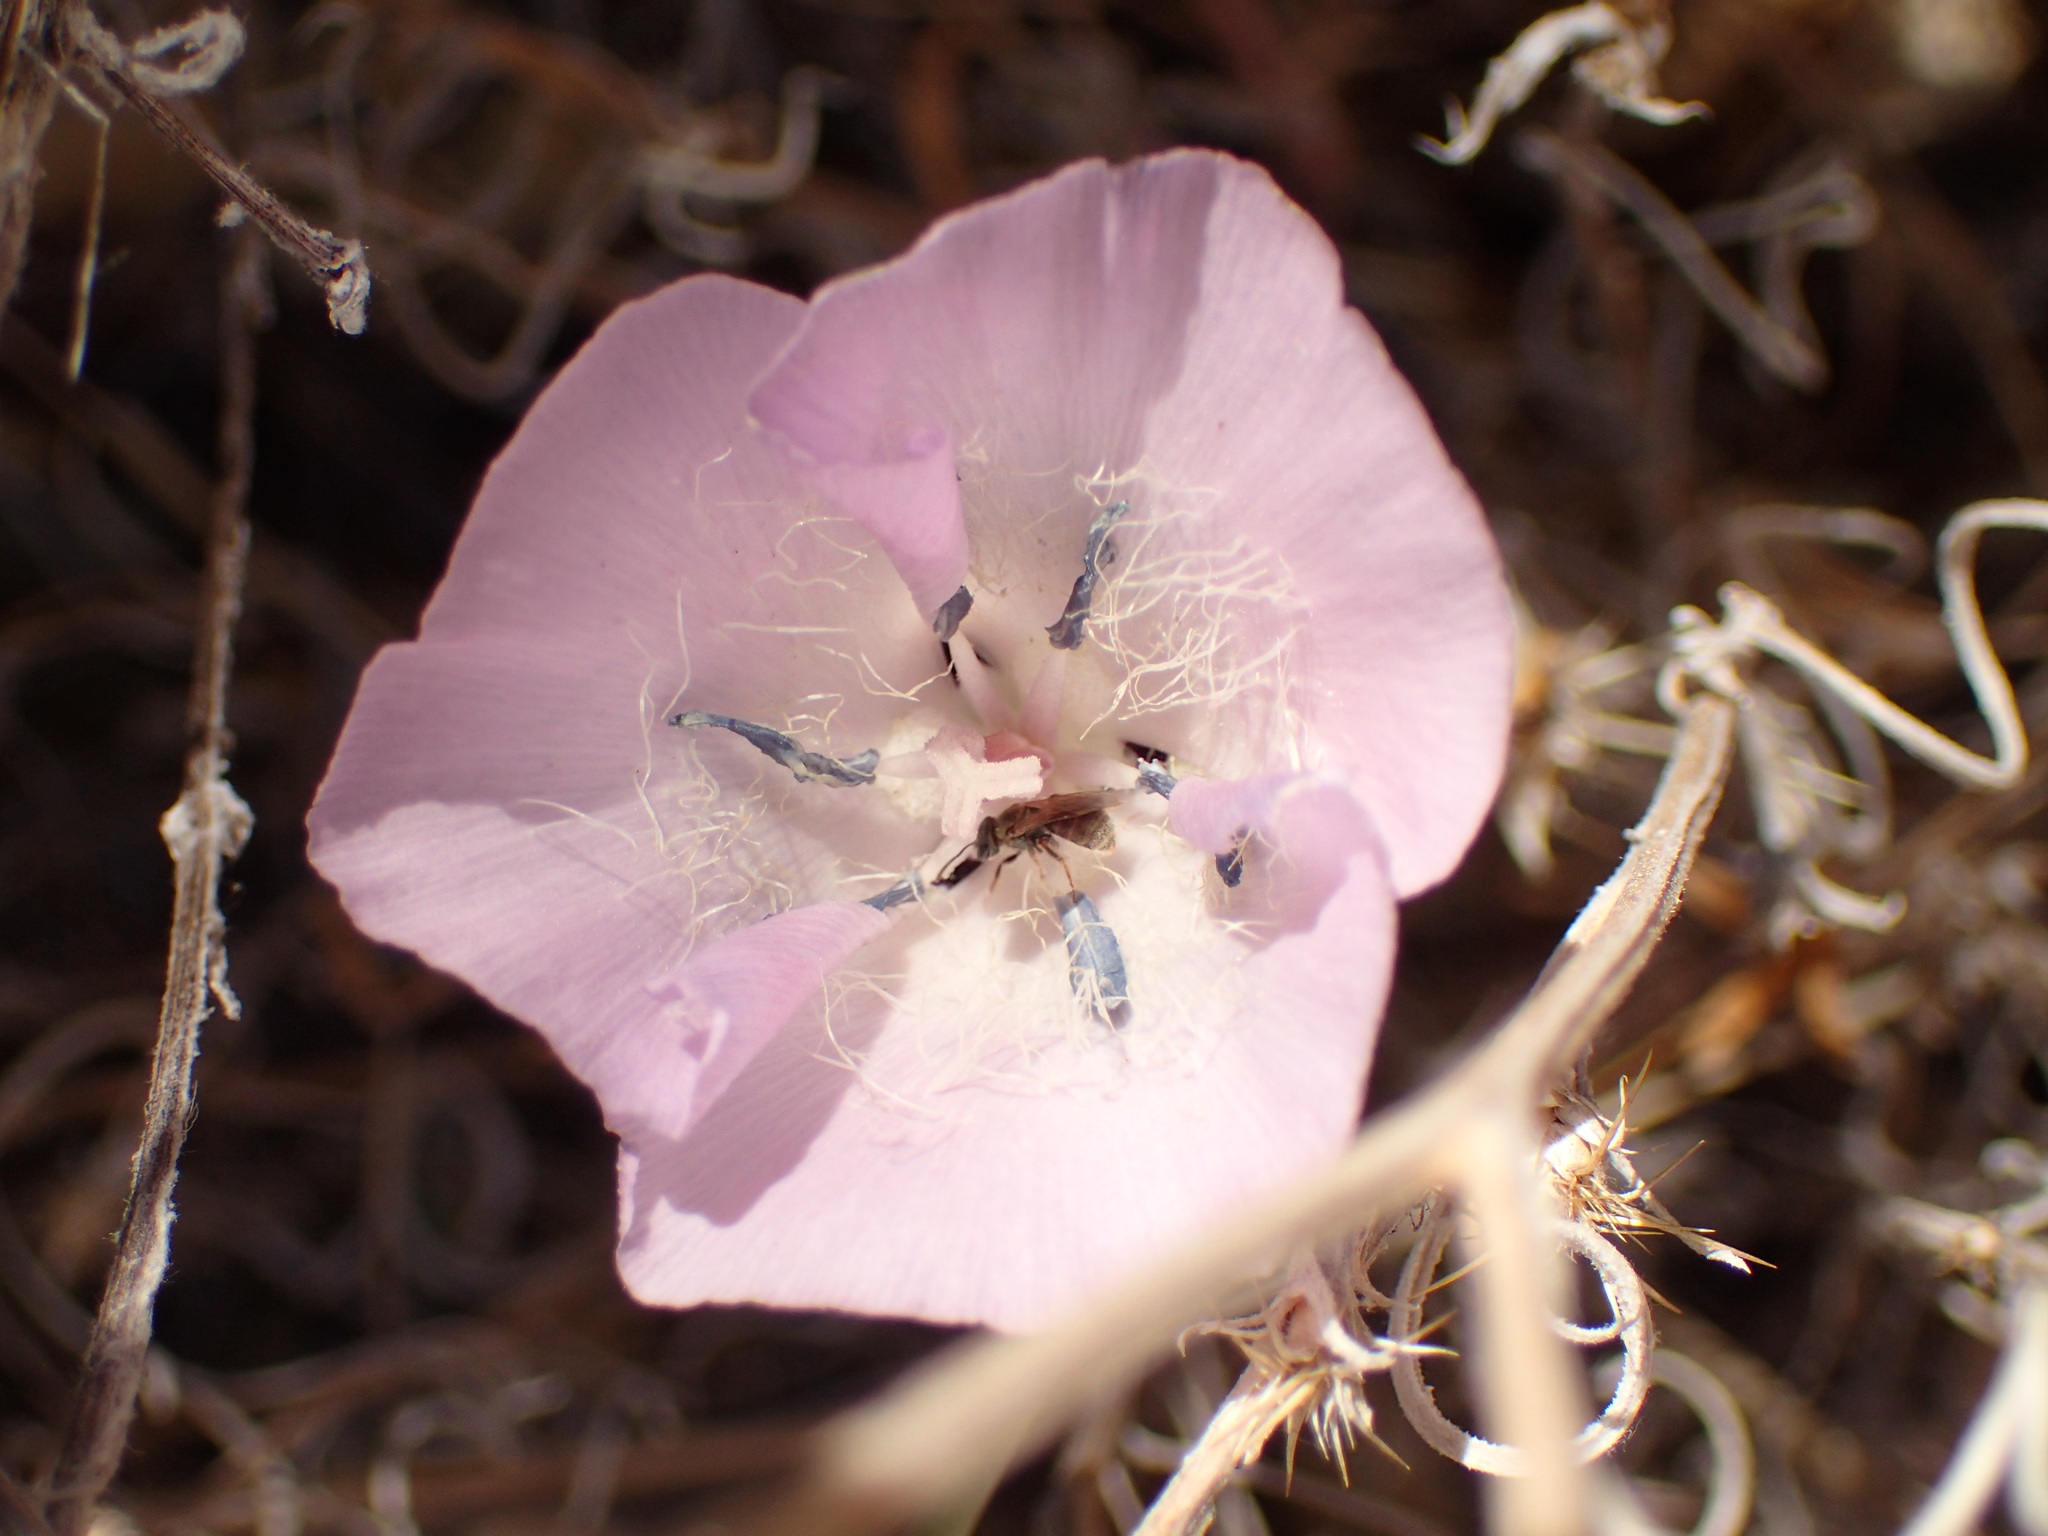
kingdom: Plantae
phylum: Tracheophyta
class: Liliopsida
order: Liliales
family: Liliaceae
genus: Calochortus
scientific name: Calochortus splendens
